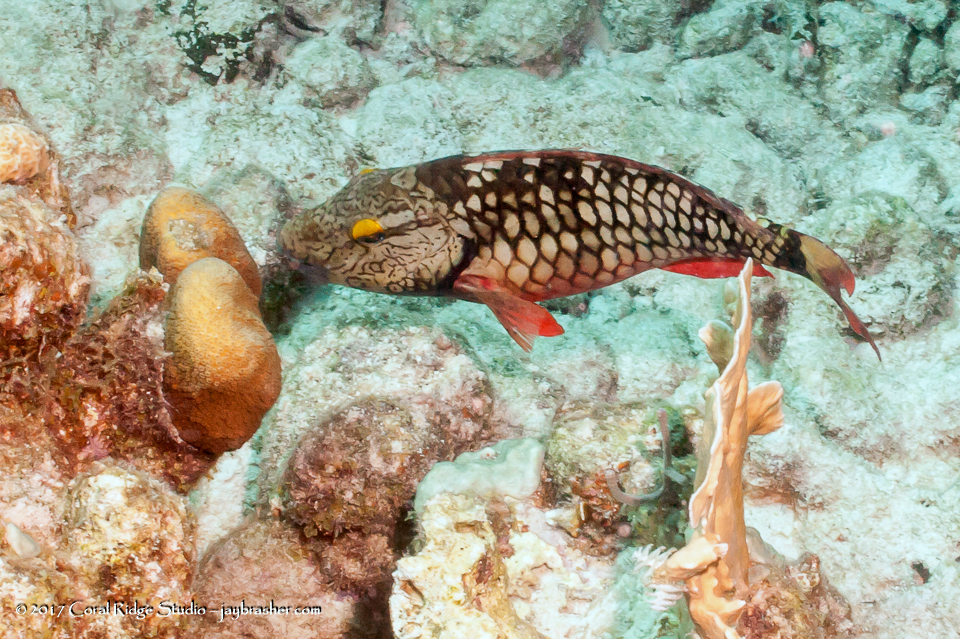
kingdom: Animalia
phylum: Chordata
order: Perciformes
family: Scaridae
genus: Sparisoma
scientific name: Sparisoma viride
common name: Stoplight parrotfish
